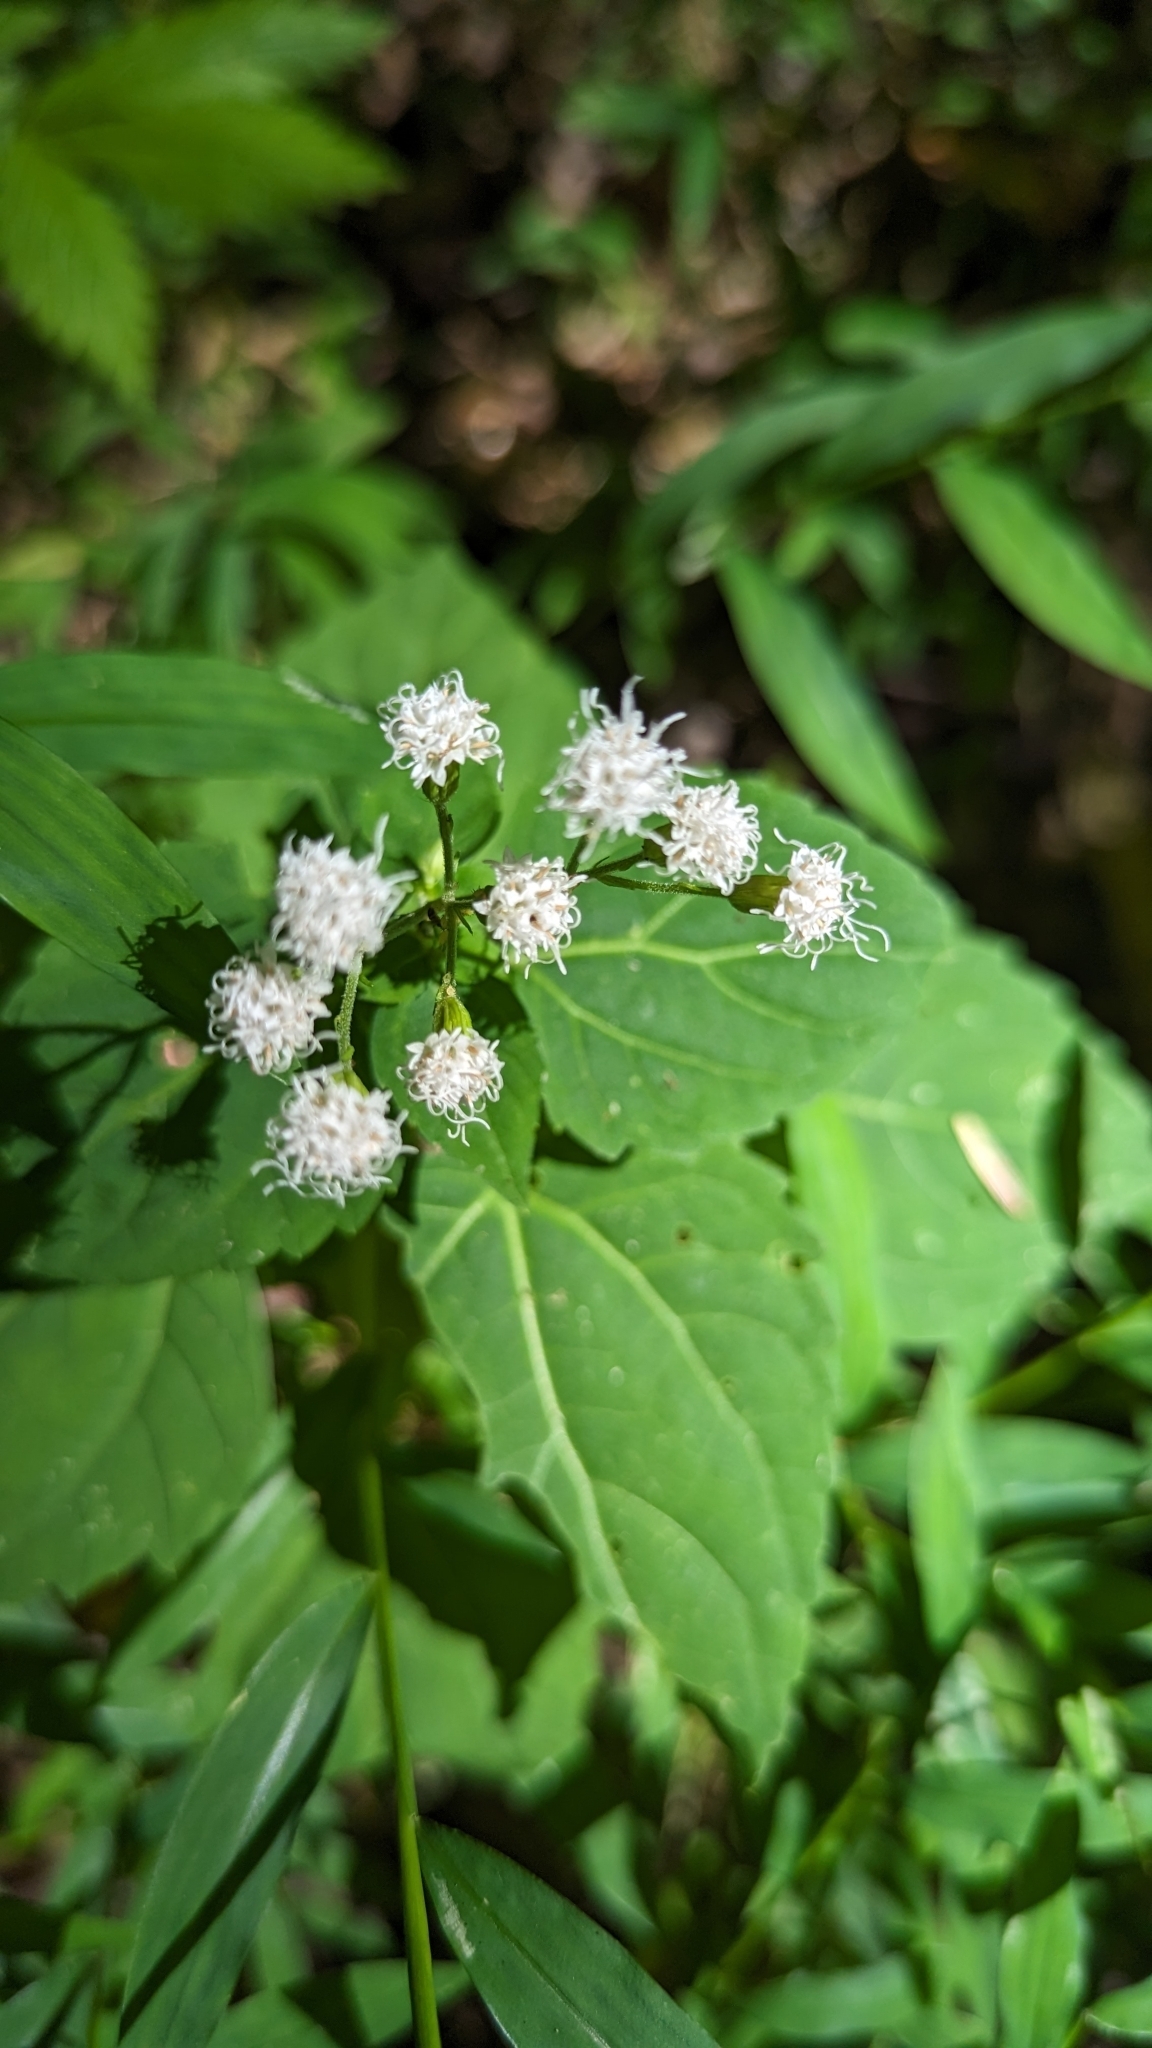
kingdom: Plantae
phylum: Tracheophyta
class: Magnoliopsida
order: Asterales
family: Asteraceae
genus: Ageratina
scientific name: Ageratina altissima
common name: White snakeroot
